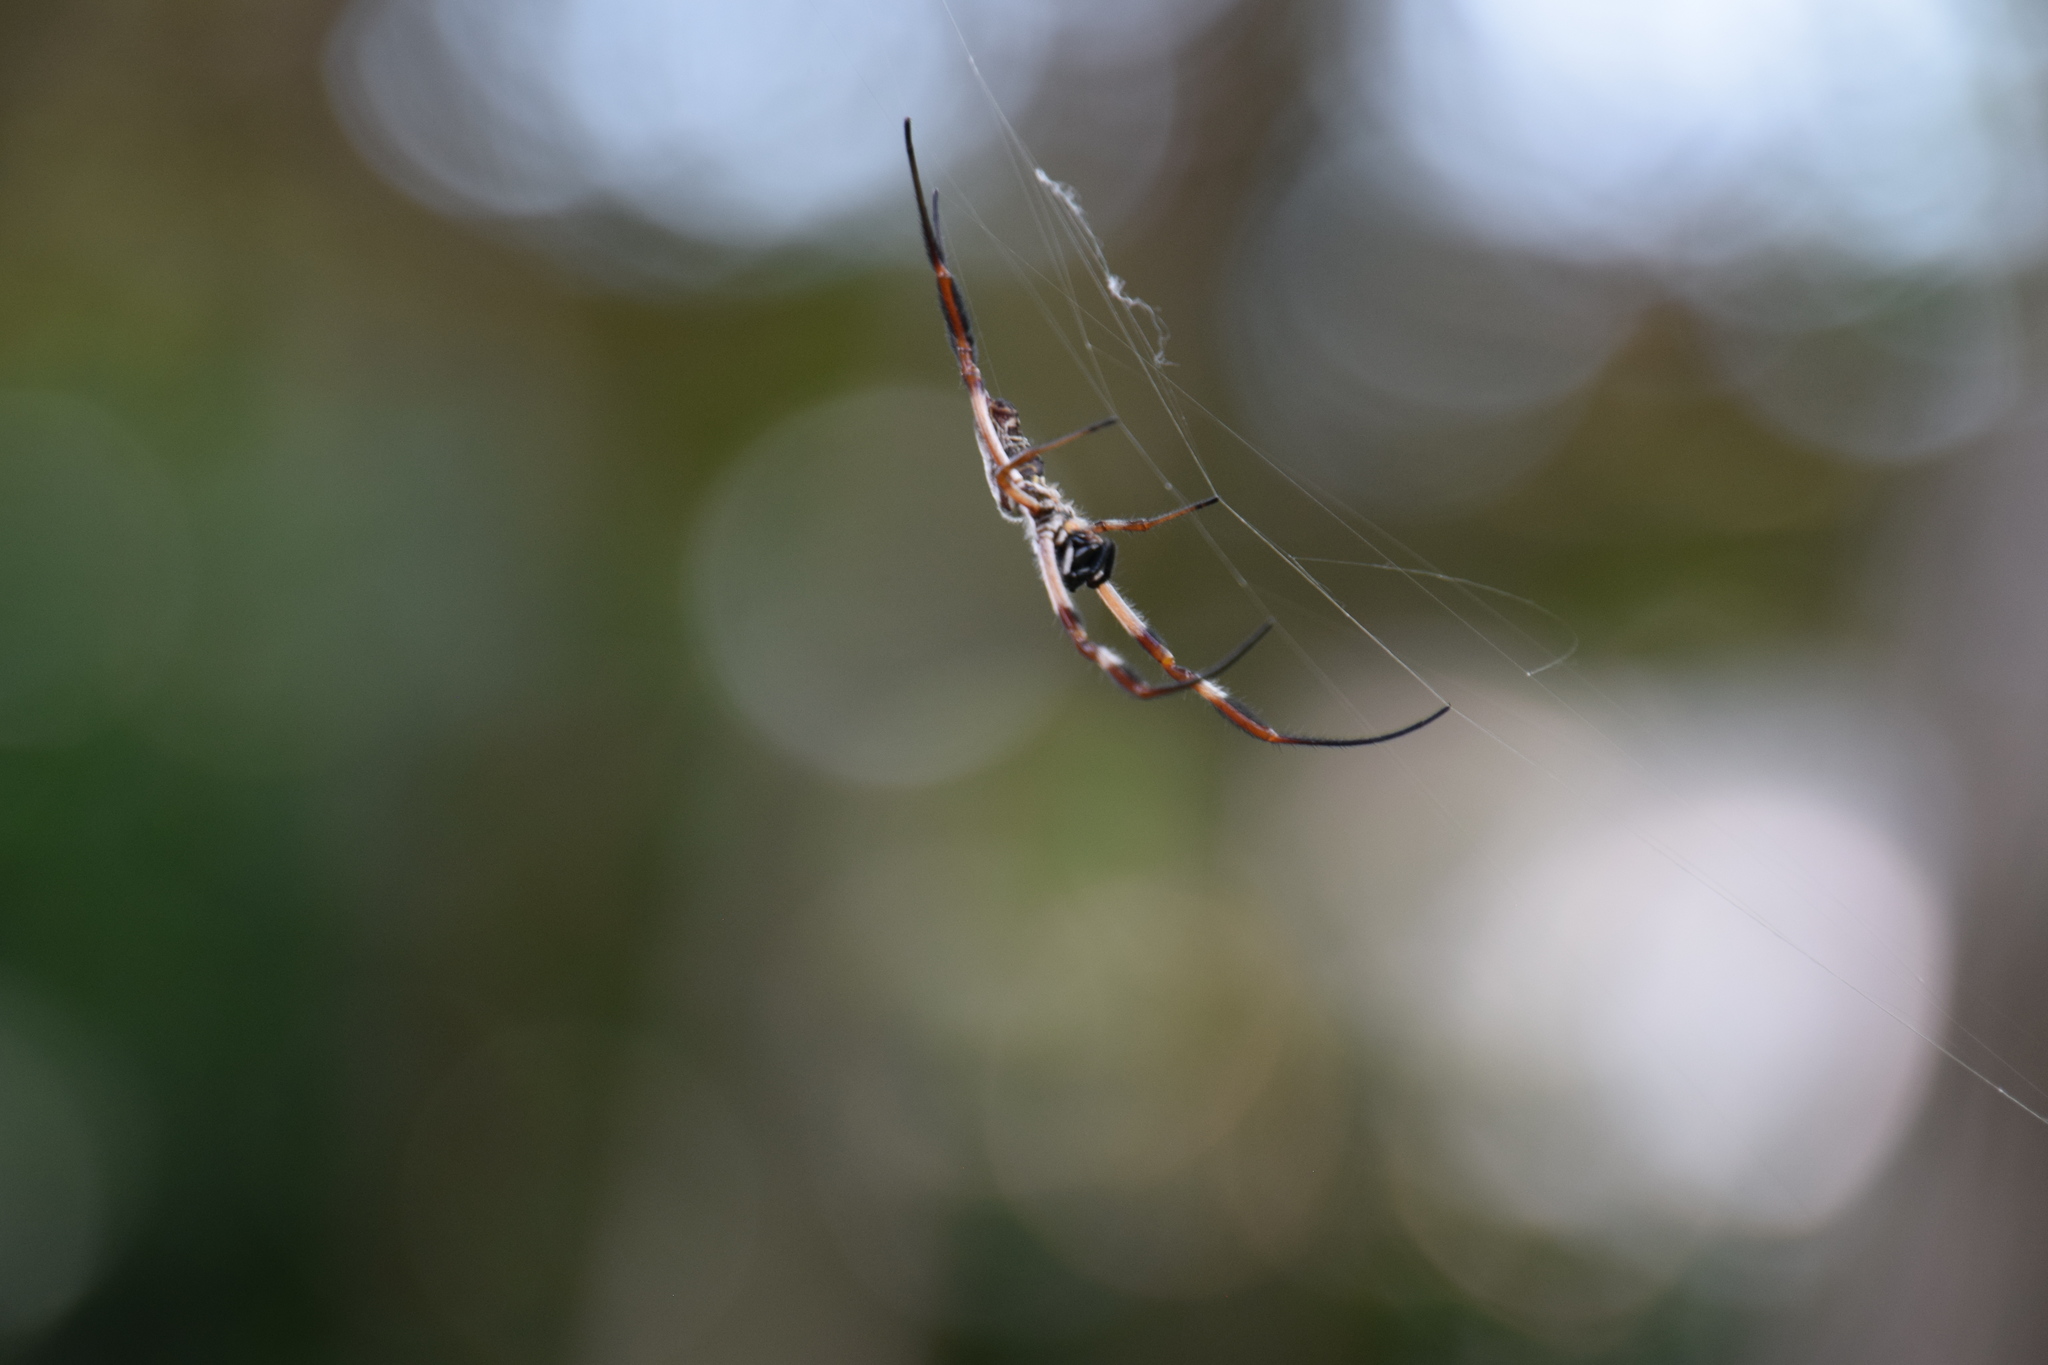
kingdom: Animalia
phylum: Arthropoda
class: Arachnida
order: Araneae
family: Araneidae
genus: Trichonephila
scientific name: Trichonephila edulis
